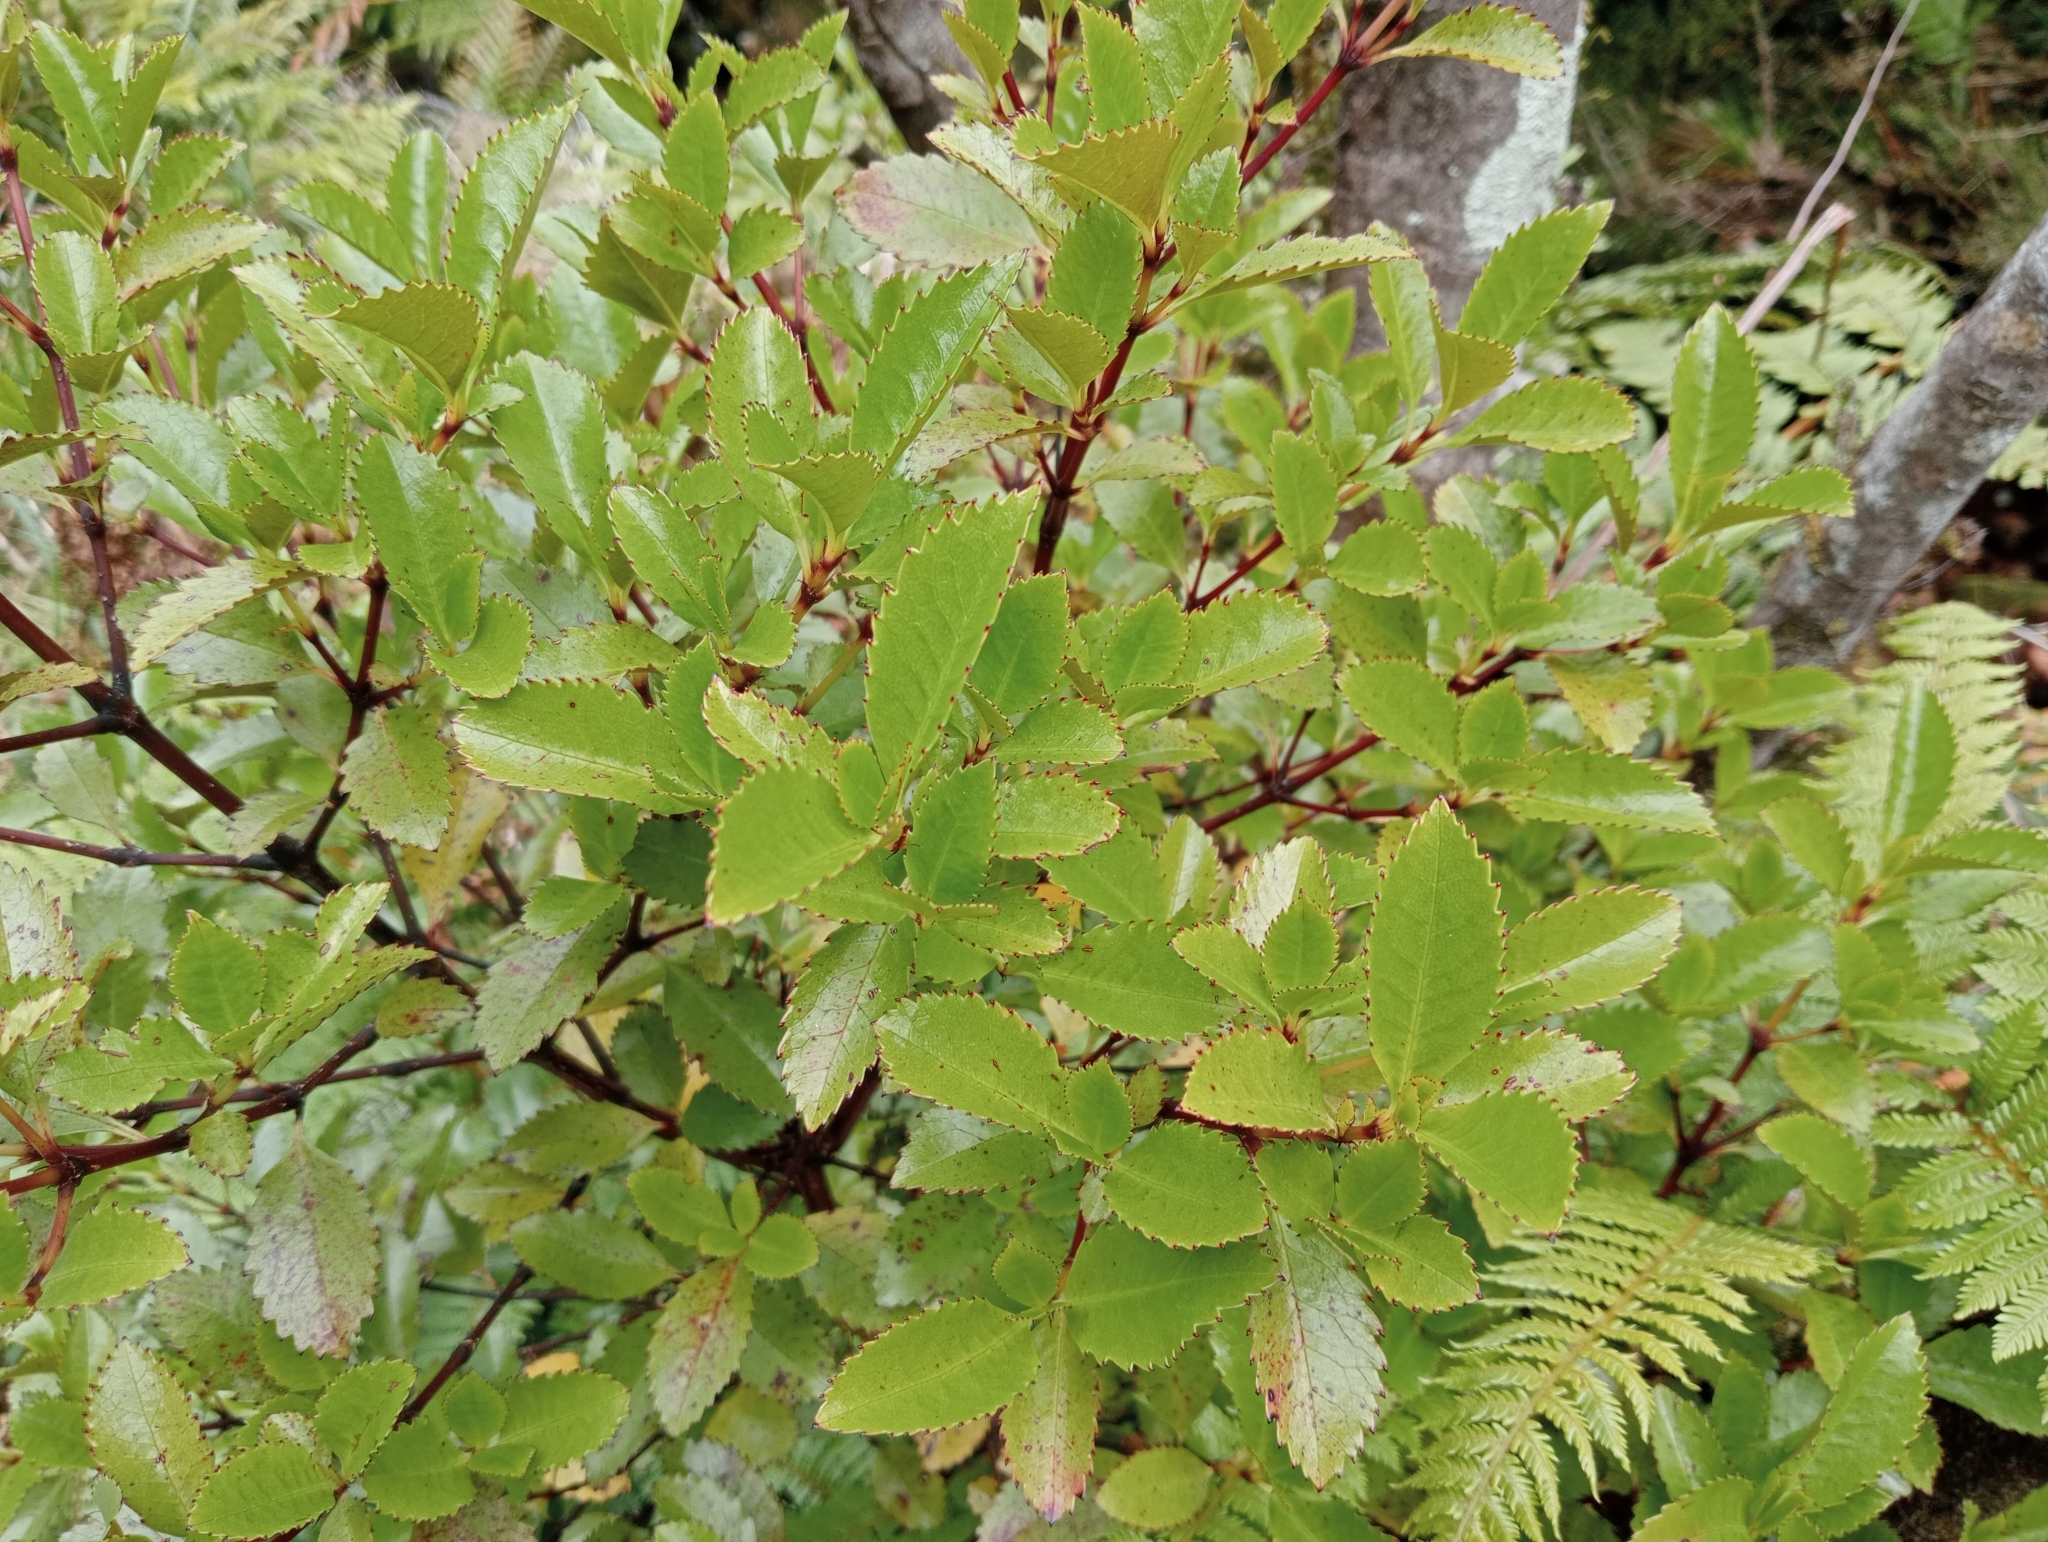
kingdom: Plantae
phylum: Tracheophyta
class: Magnoliopsida
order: Chloranthales
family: Chloranthaceae
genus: Ascarina
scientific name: Ascarina lucida
